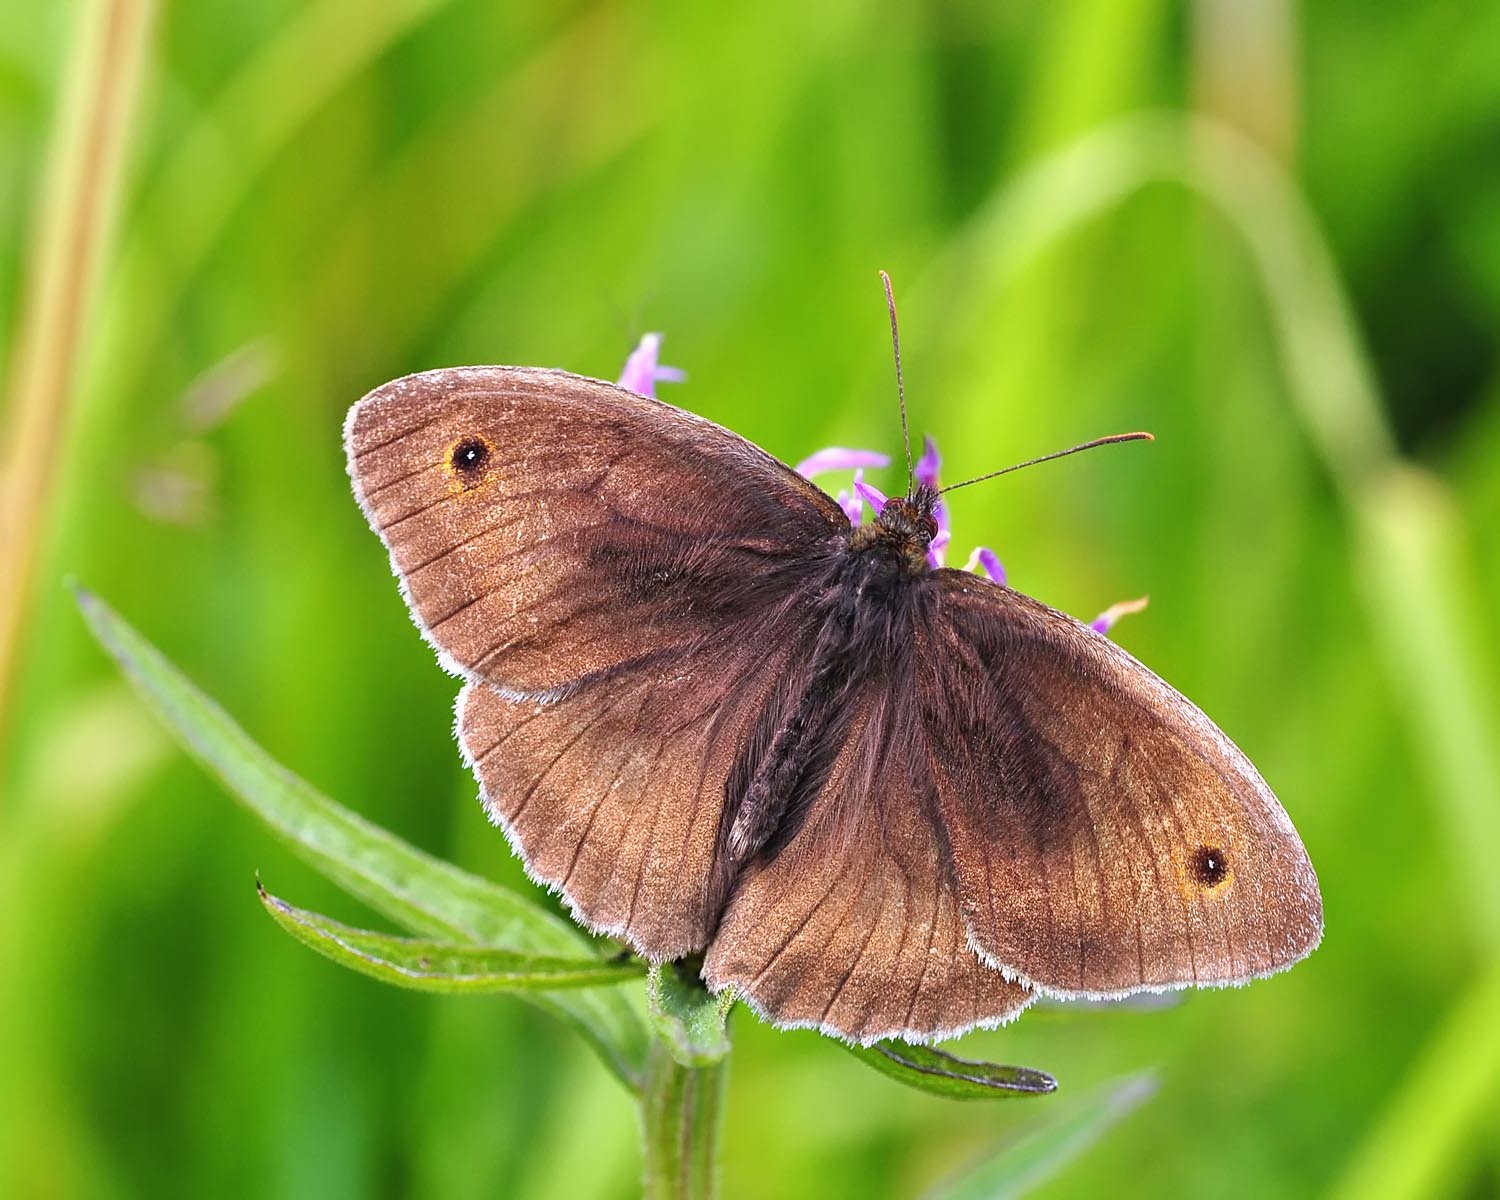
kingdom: Animalia
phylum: Arthropoda
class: Insecta
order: Lepidoptera
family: Nymphalidae
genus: Maniola
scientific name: Maniola jurtina
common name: Meadow brown
